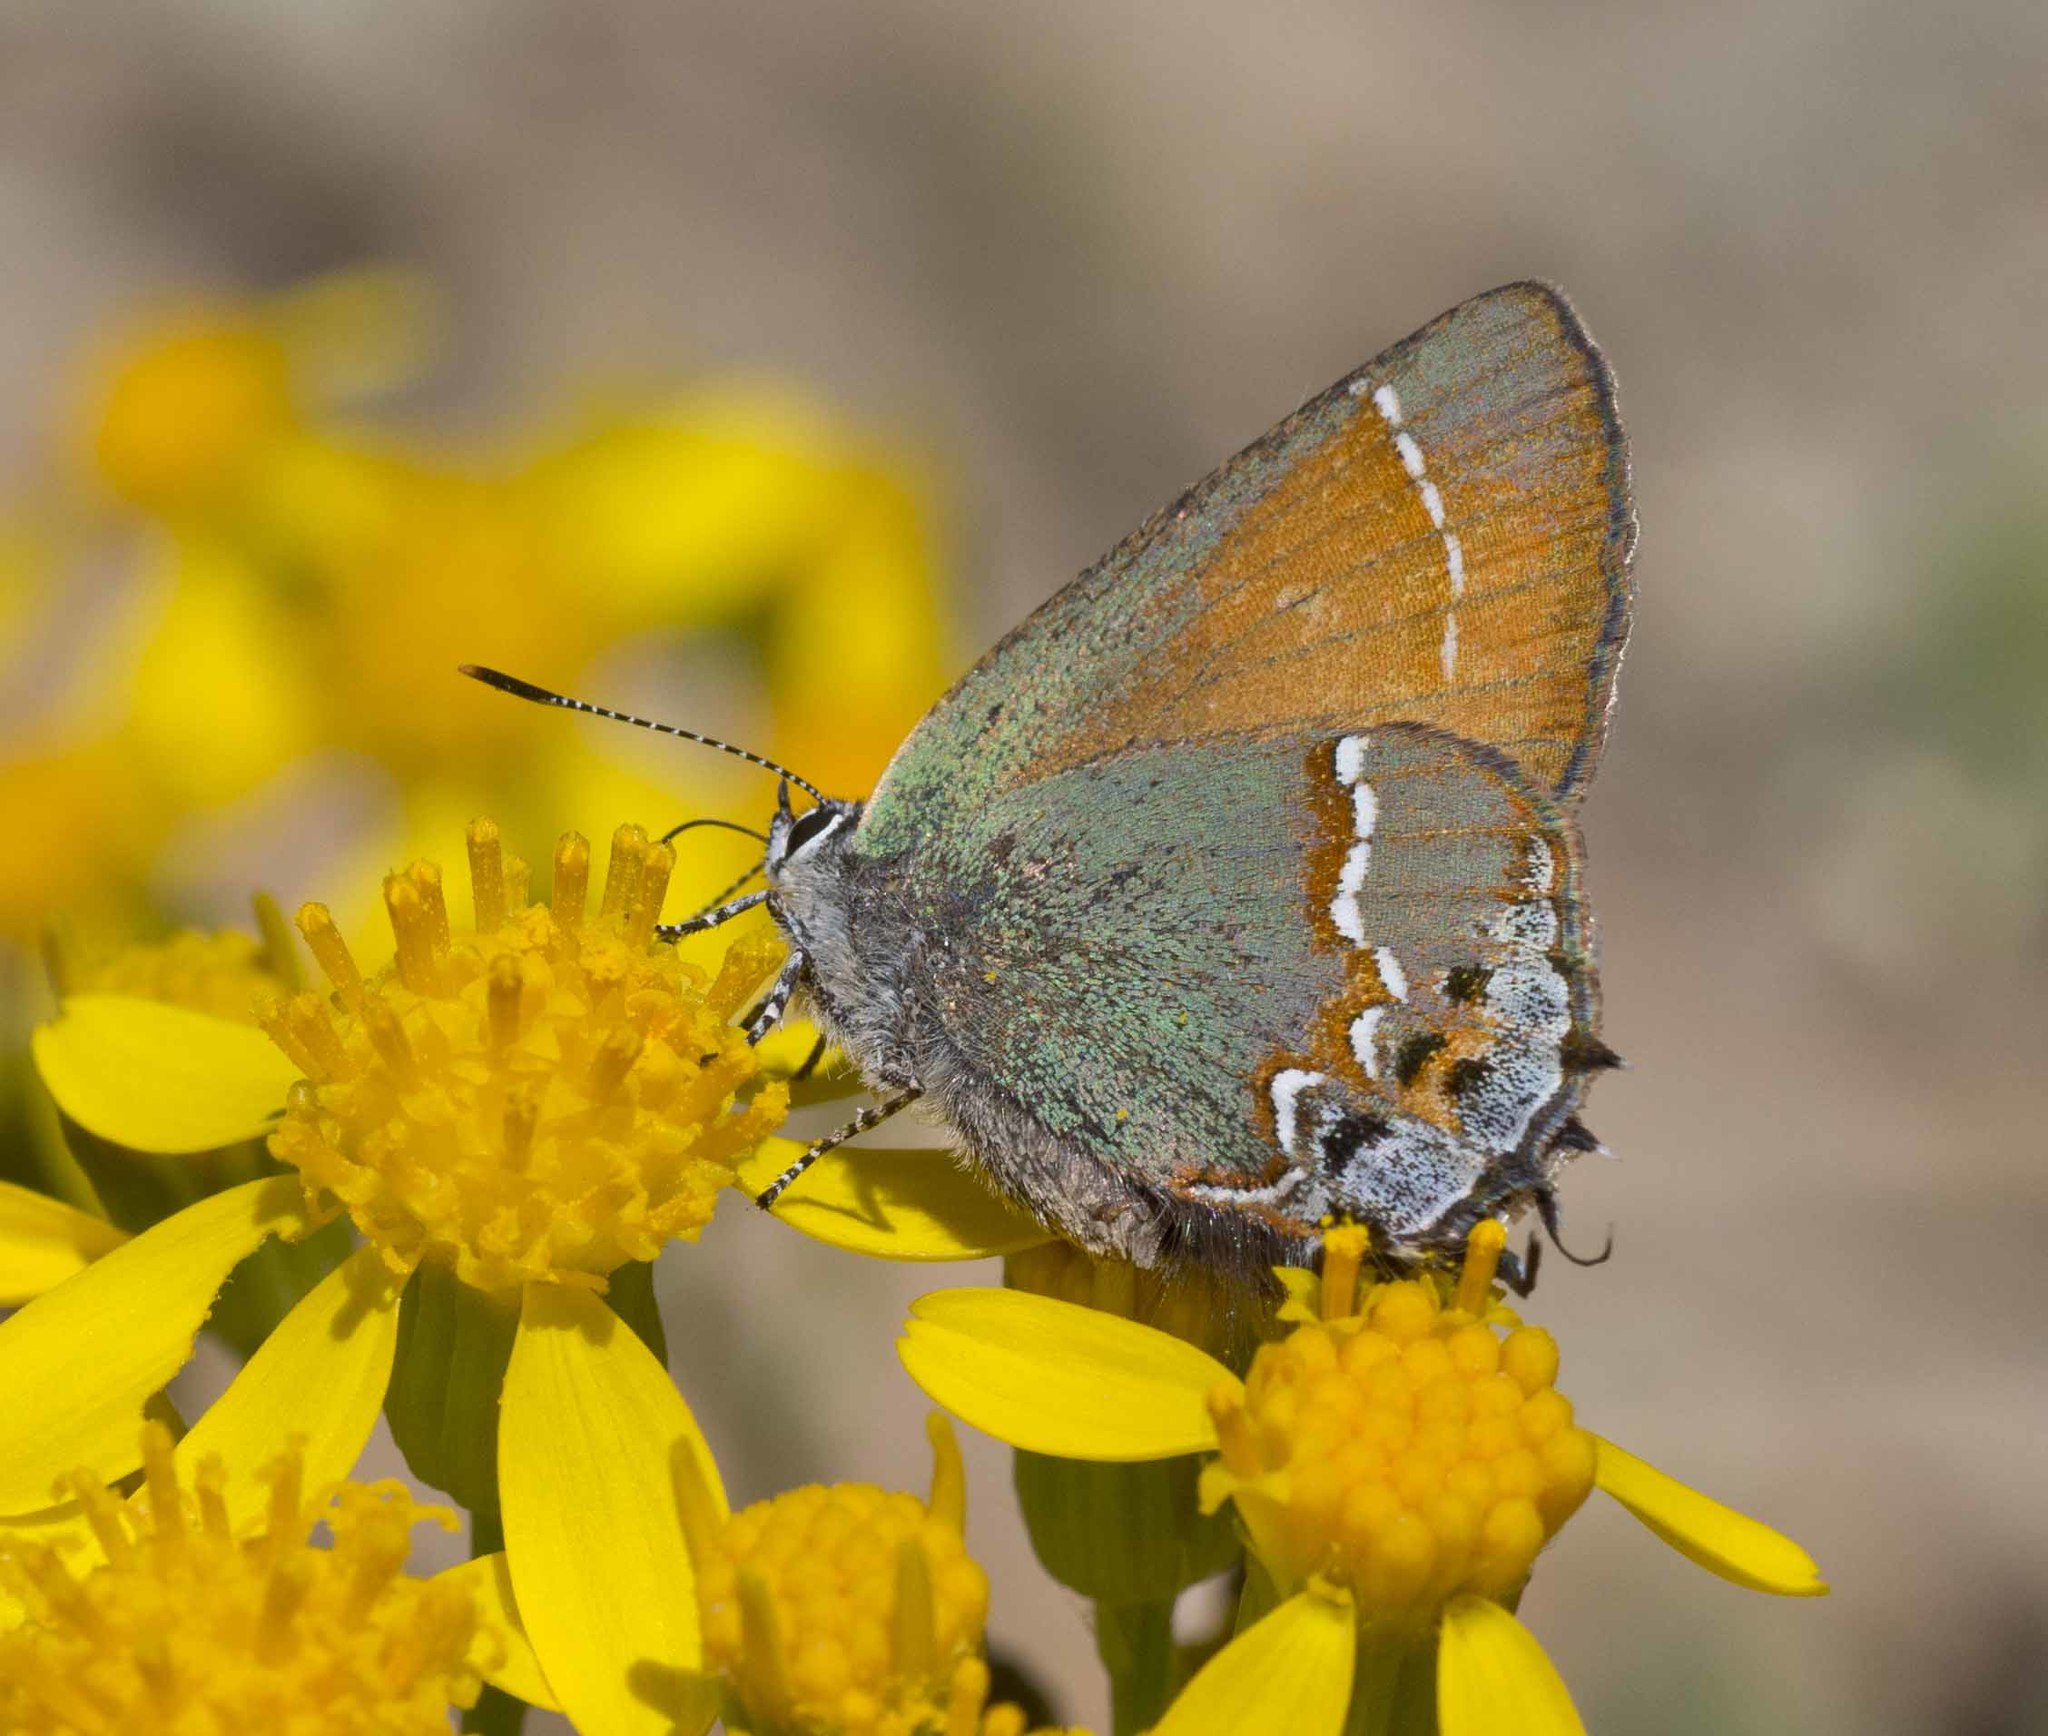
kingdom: Animalia
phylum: Arthropoda
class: Insecta
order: Lepidoptera
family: Lycaenidae
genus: Mitoura
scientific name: Mitoura siva
